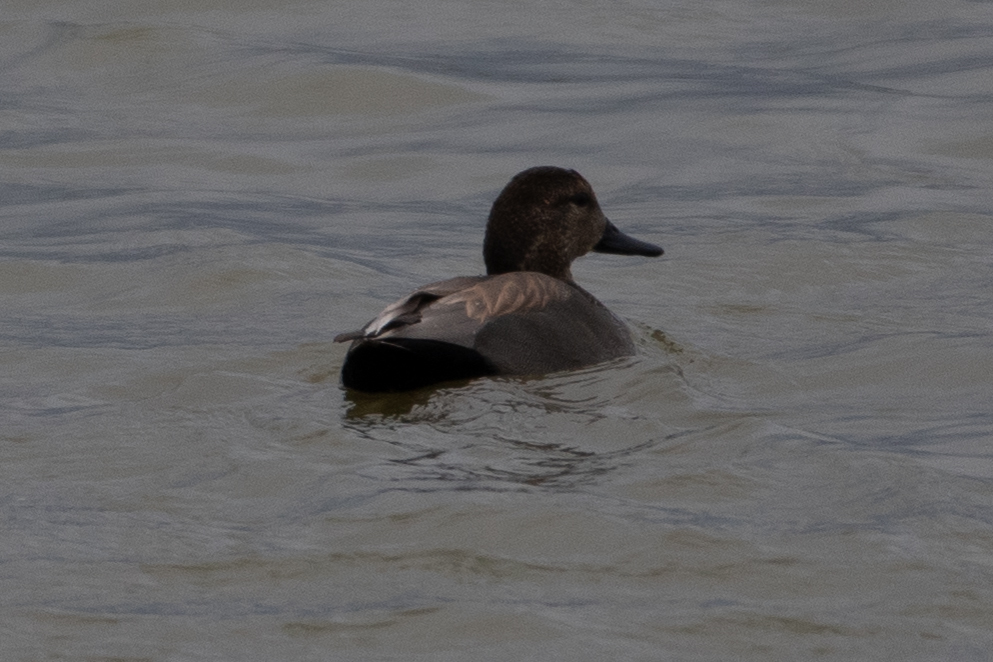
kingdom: Animalia
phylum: Chordata
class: Aves
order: Anseriformes
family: Anatidae
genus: Mareca
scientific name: Mareca strepera
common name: Gadwall
